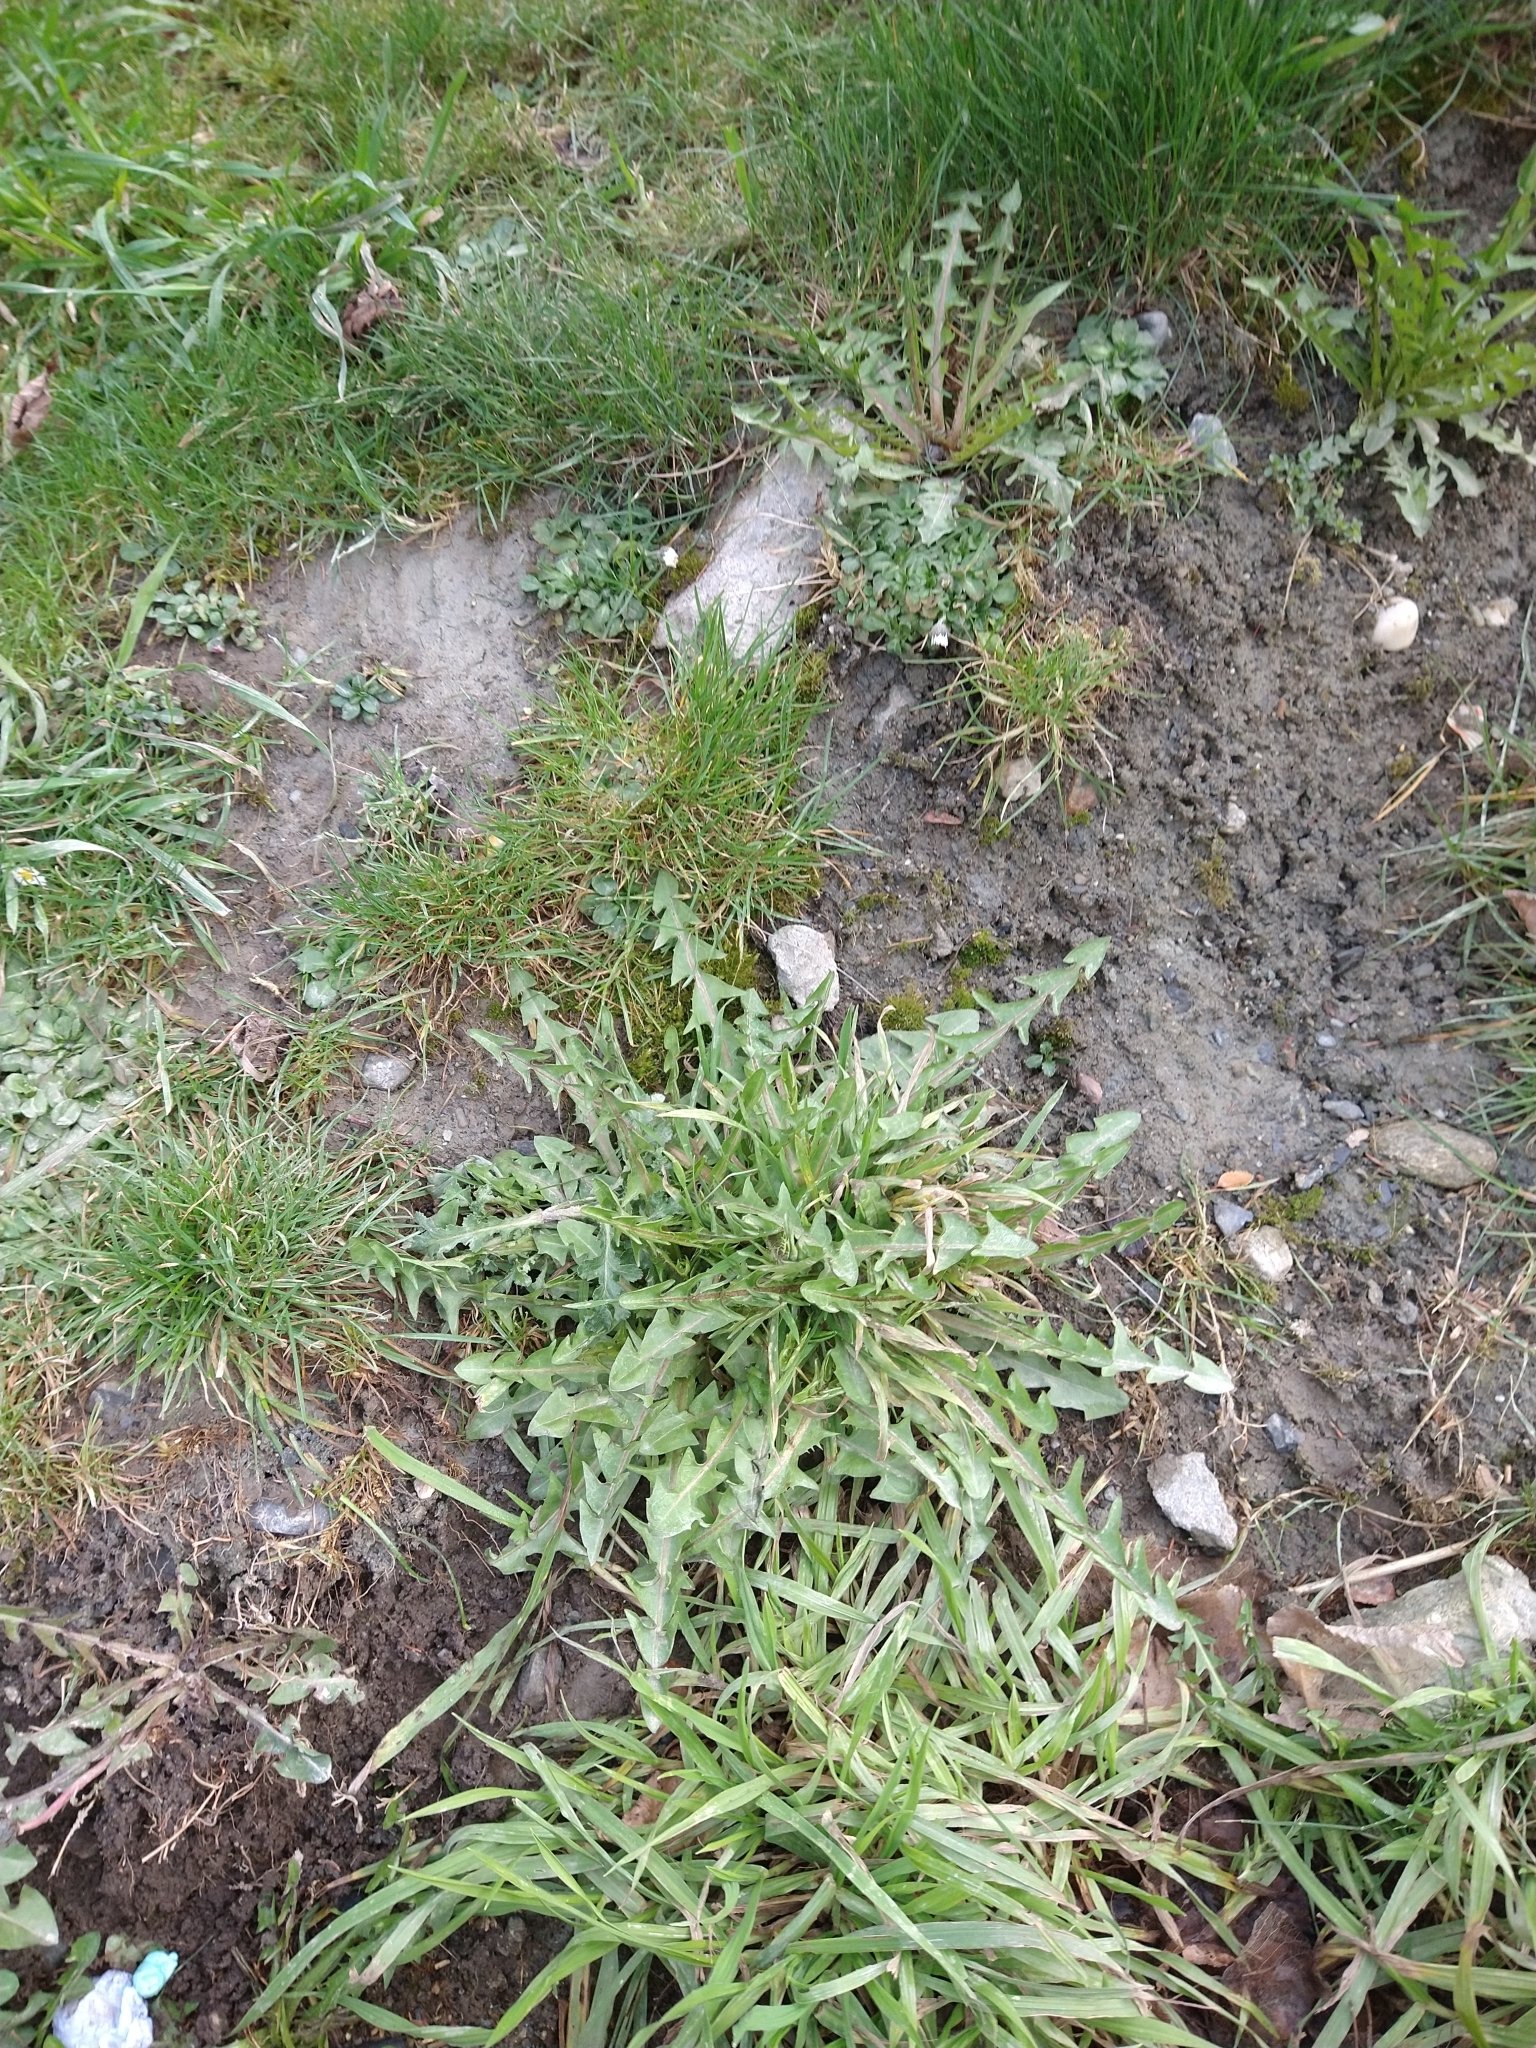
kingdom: Plantae
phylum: Tracheophyta
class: Magnoliopsida
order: Asterales
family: Asteraceae
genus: Taraxacum
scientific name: Taraxacum officinale
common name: Common dandelion
